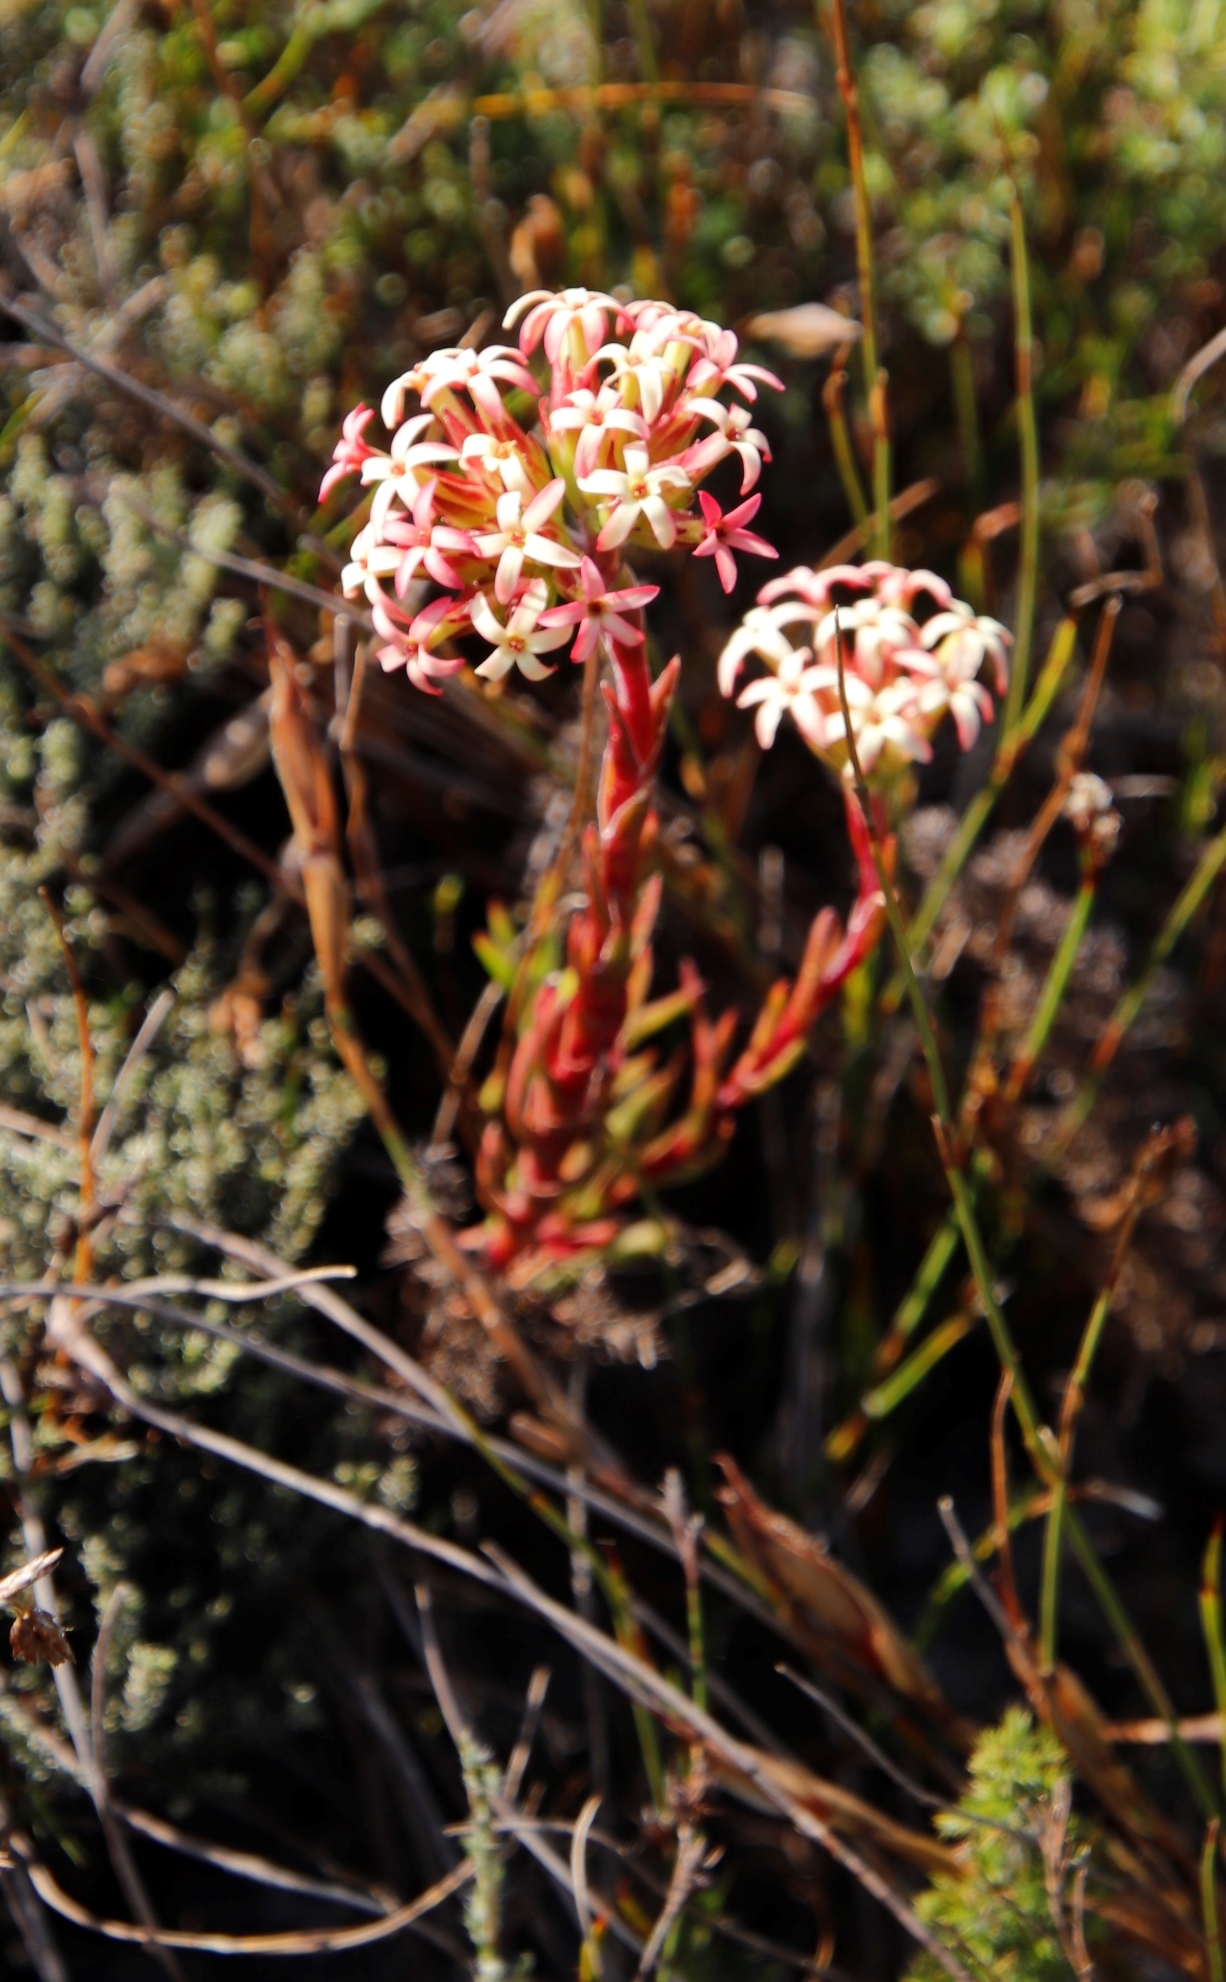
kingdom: Plantae
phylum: Tracheophyta
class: Magnoliopsida
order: Saxifragales
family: Crassulaceae
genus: Crassula
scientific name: Crassula fascicularis
